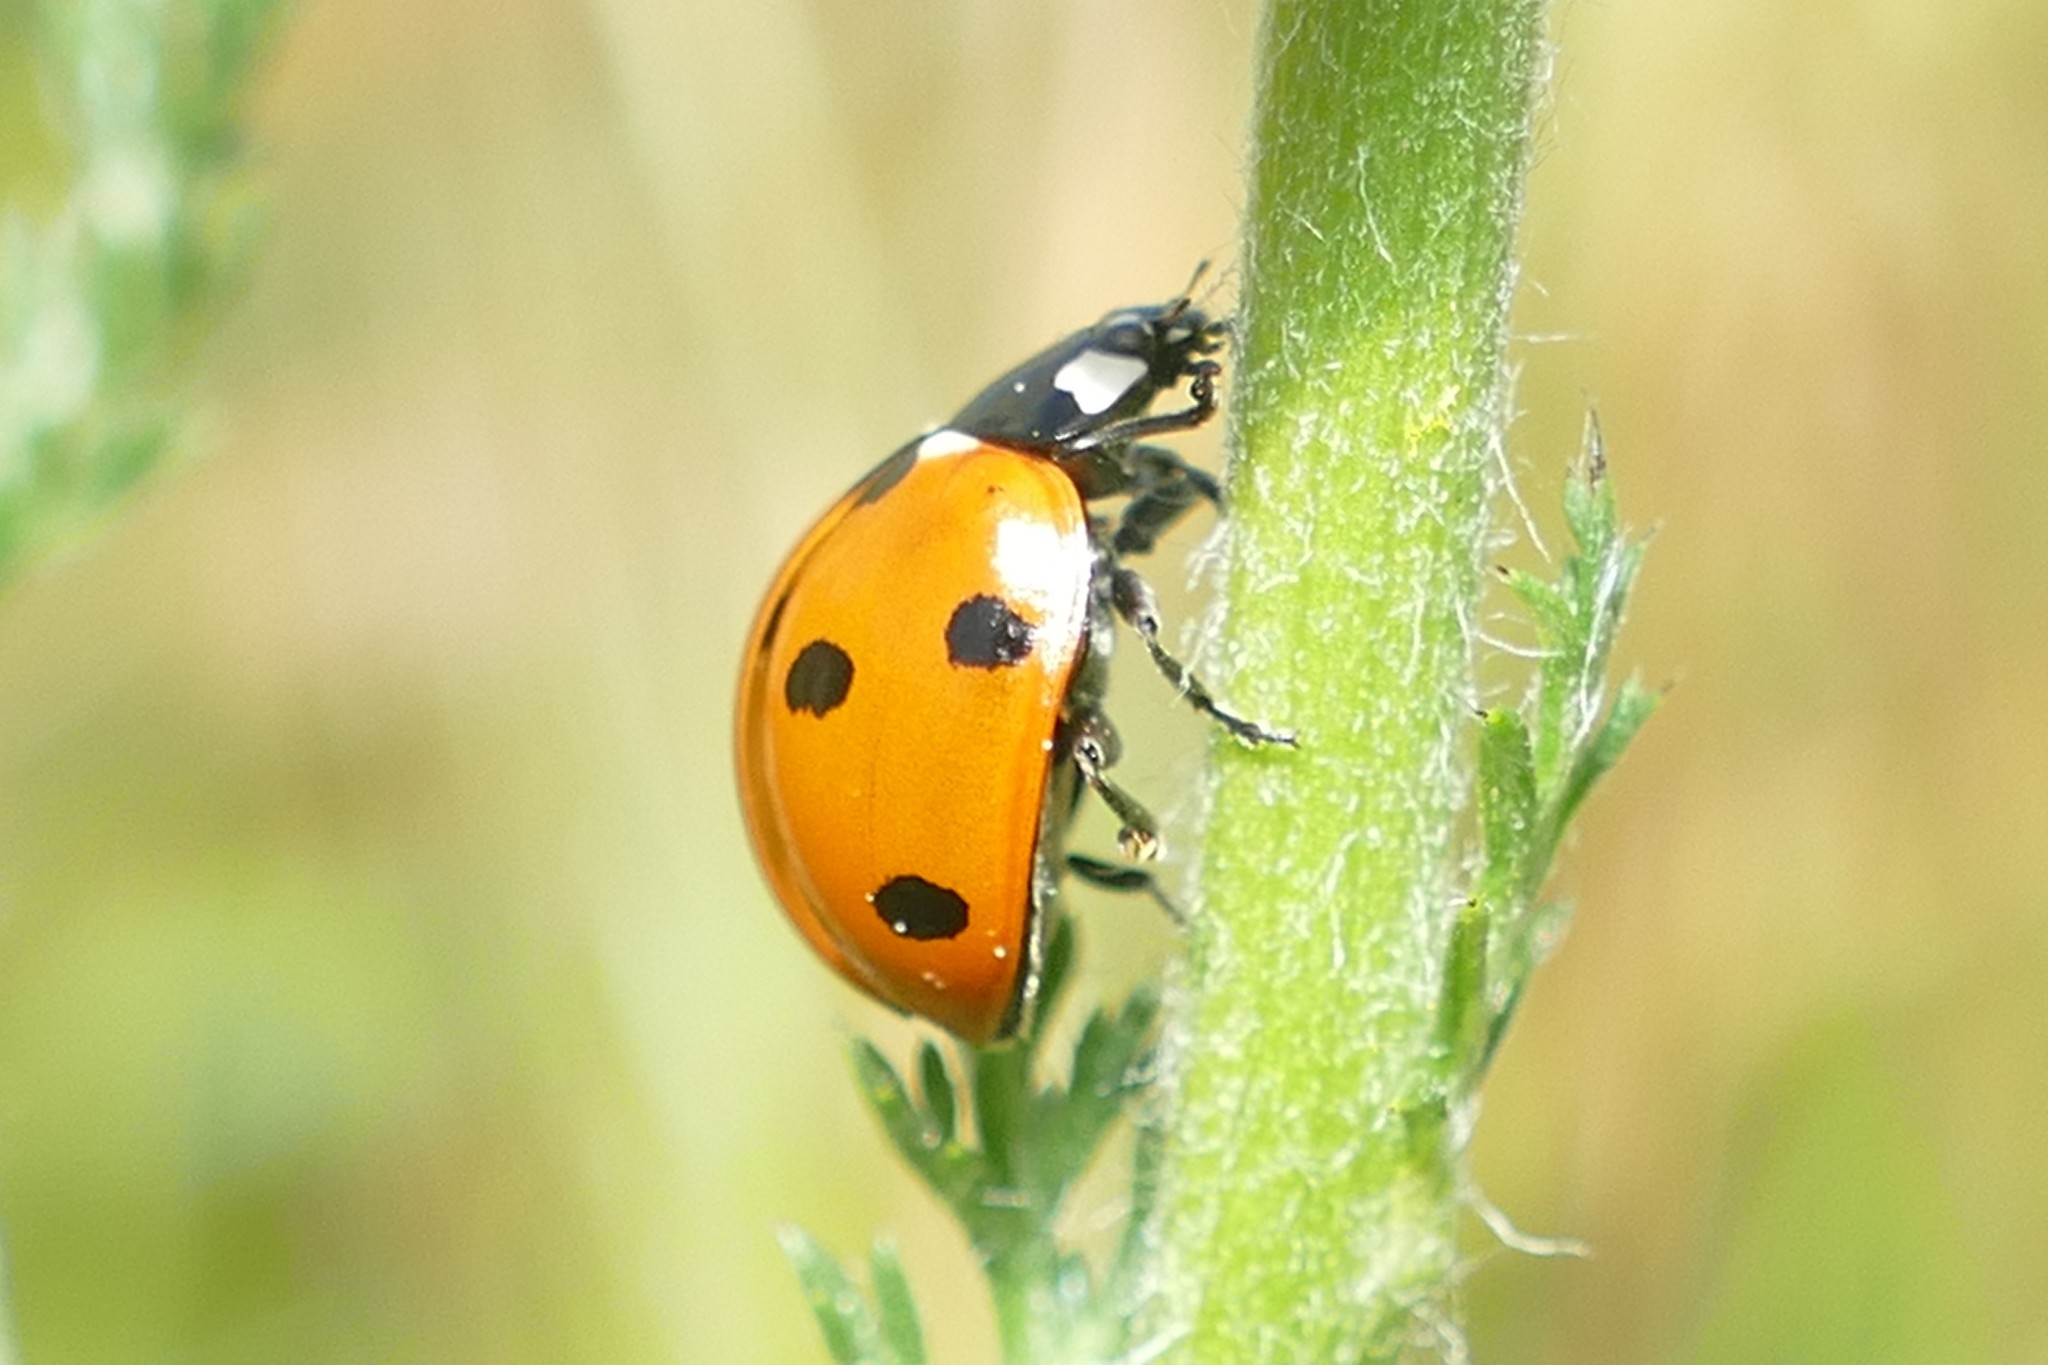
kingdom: Animalia
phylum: Arthropoda
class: Insecta
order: Coleoptera
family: Coccinellidae
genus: Coccinella
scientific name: Coccinella septempunctata
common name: Sevenspotted lady beetle
